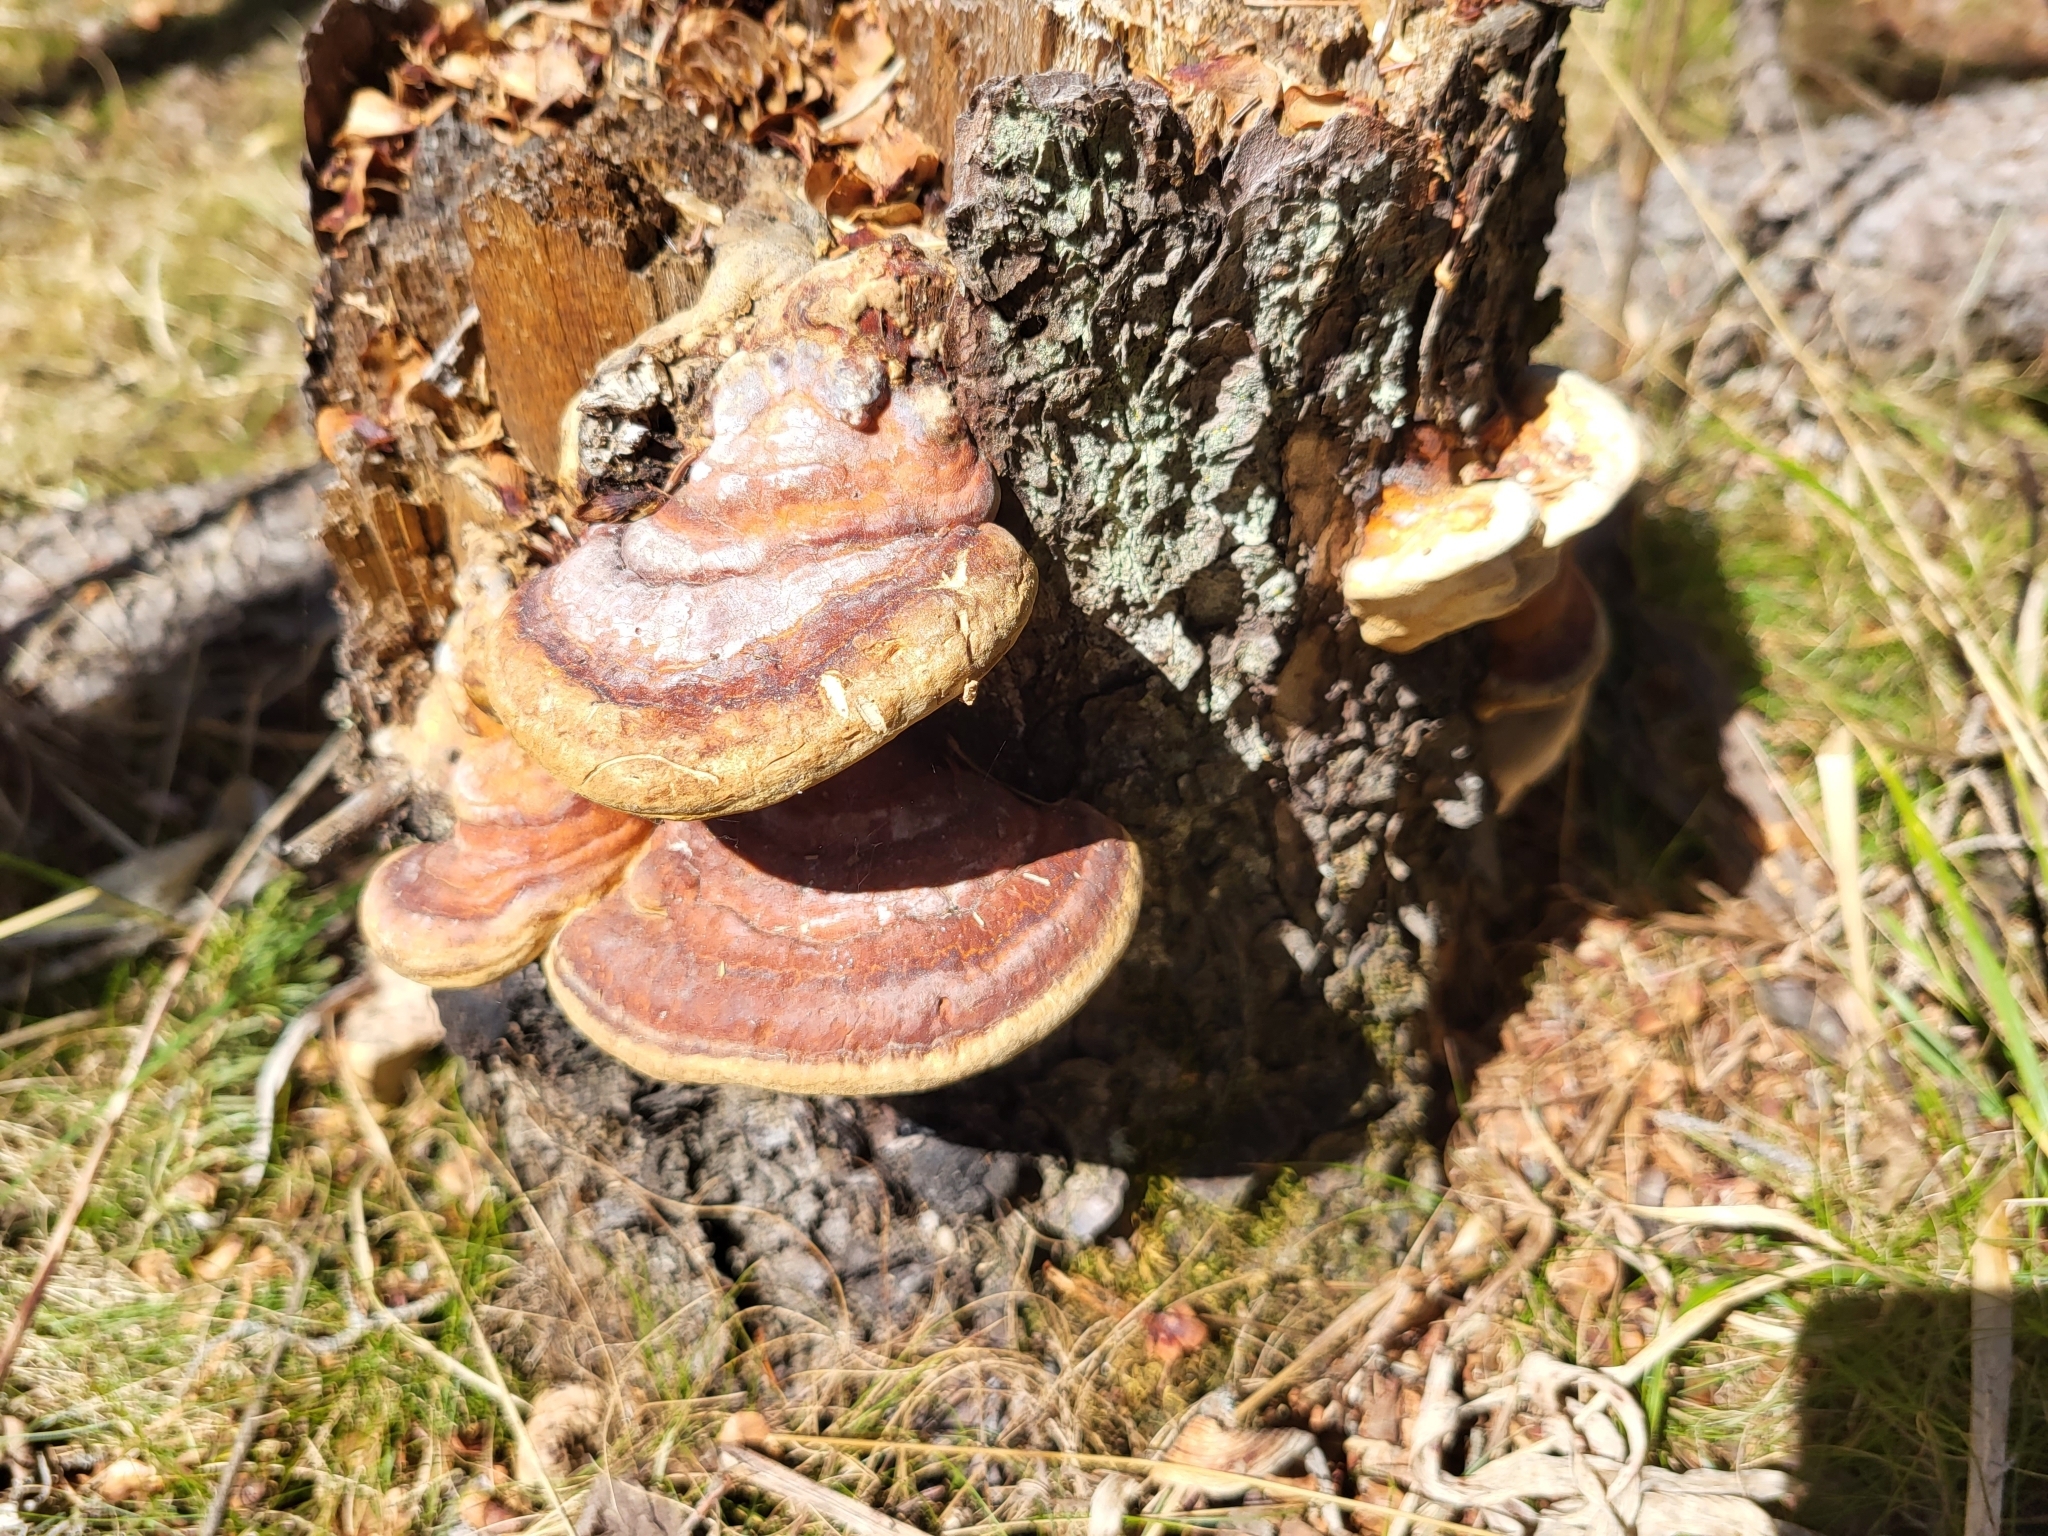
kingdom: Fungi
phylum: Basidiomycota
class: Agaricomycetes
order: Polyporales
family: Fomitopsidaceae
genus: Fomitopsis
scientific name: Fomitopsis mounceae
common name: Northern red belt
